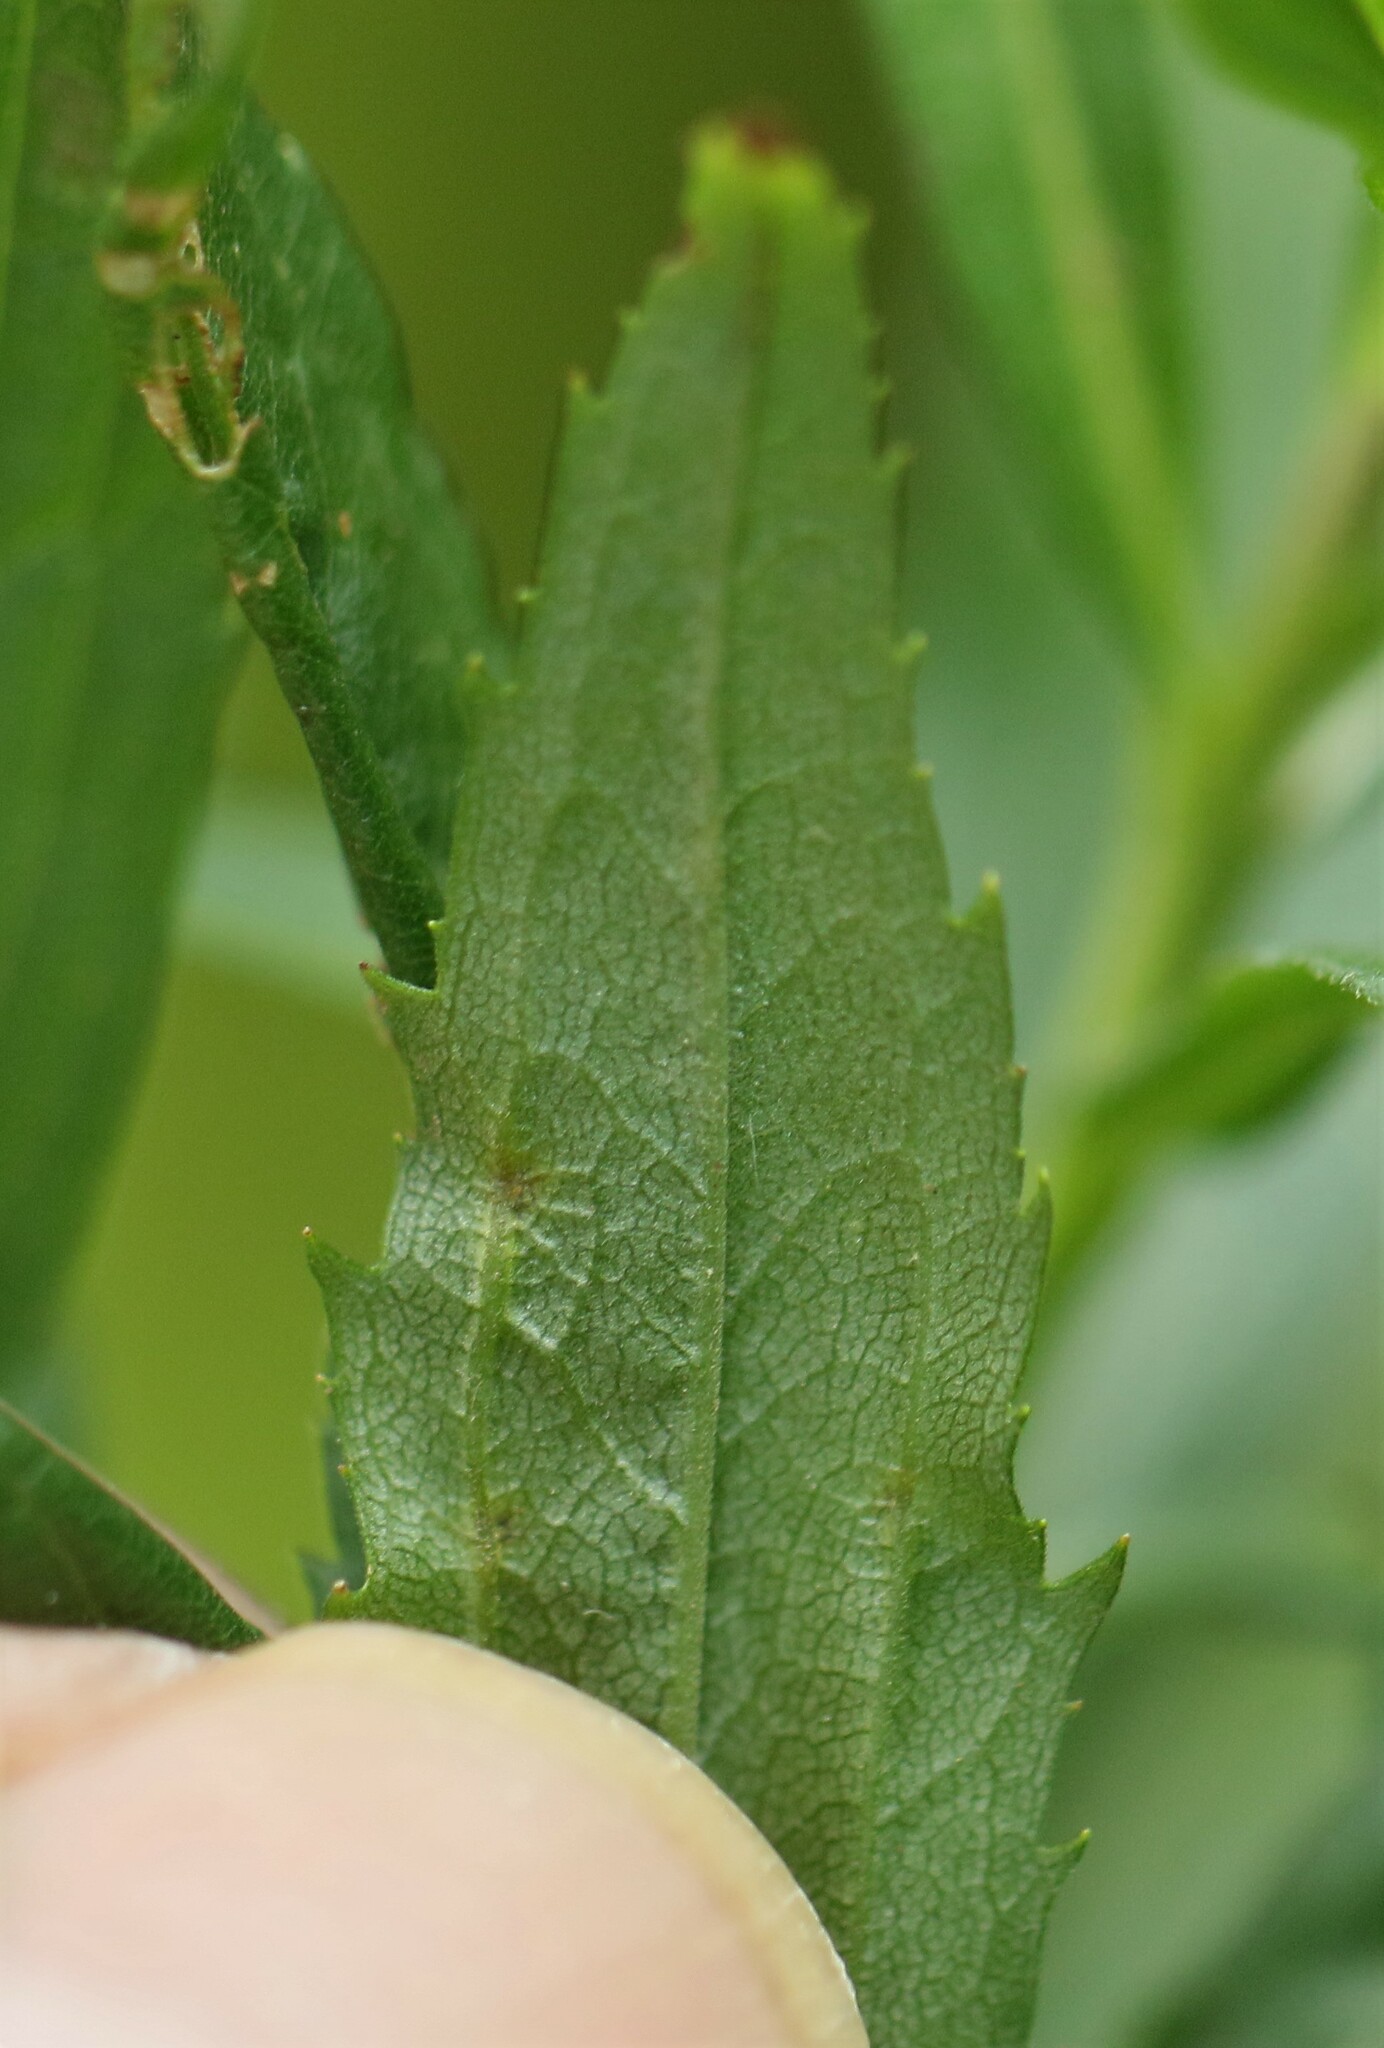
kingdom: Animalia
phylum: Arthropoda
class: Insecta
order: Diptera
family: Cecidomyiidae
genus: Rhopalomyia
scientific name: Rhopalomyia clarkei
